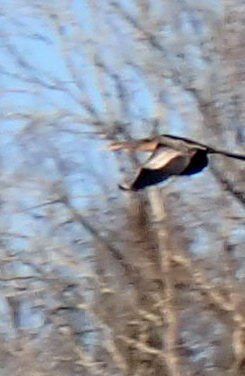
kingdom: Animalia
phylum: Chordata
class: Aves
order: Suliformes
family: Anhingidae
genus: Anhinga
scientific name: Anhinga anhinga
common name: Anhinga
